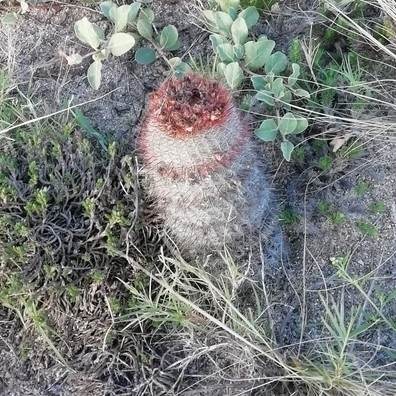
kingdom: Plantae
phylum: Tracheophyta
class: Magnoliopsida
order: Caryophyllales
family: Cactaceae
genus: Parodia
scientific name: Parodia scopa
